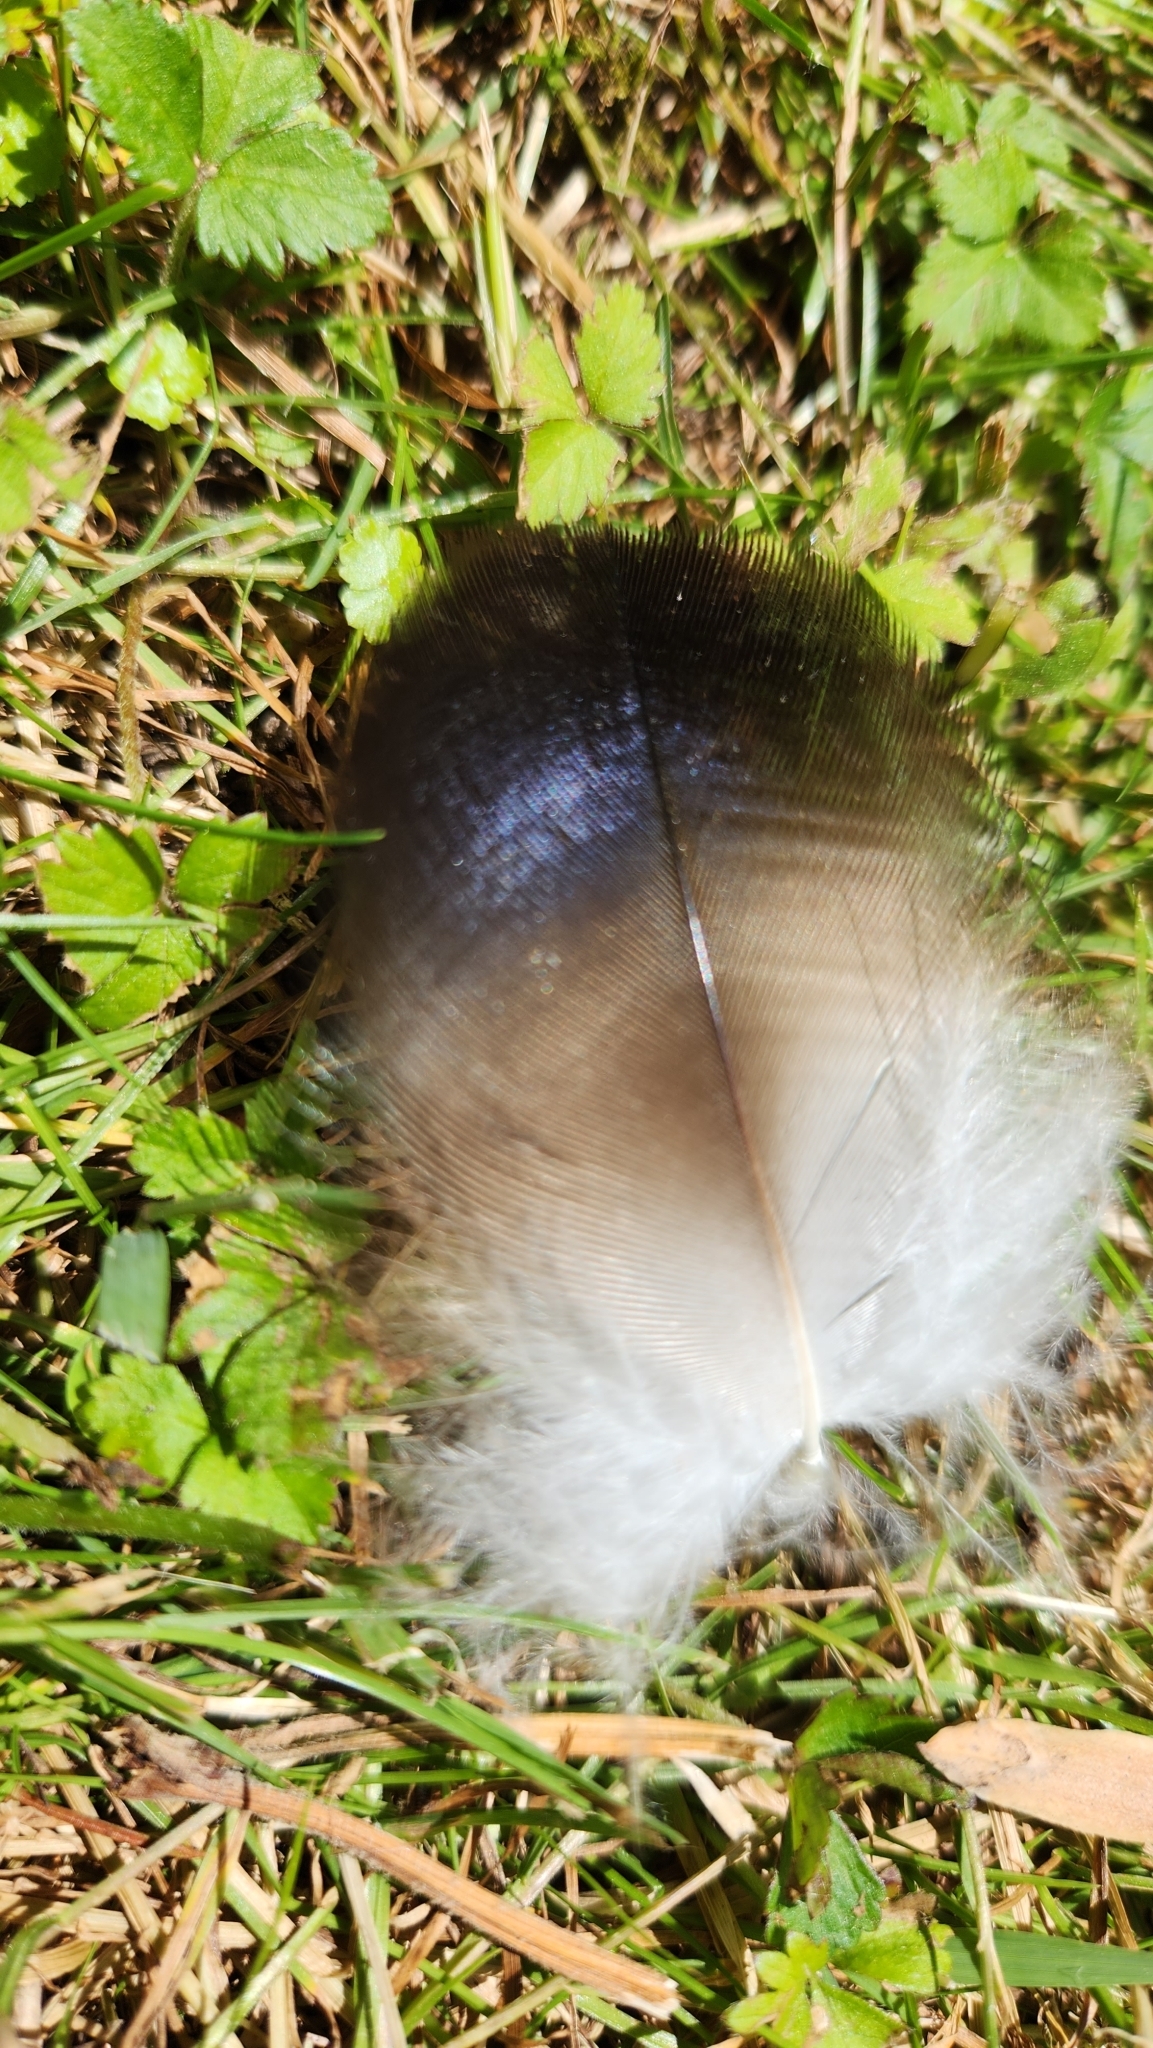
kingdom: Animalia
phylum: Chordata
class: Aves
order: Accipitriformes
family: Cathartidae
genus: Cathartes
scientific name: Cathartes aura
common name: Turkey vulture
